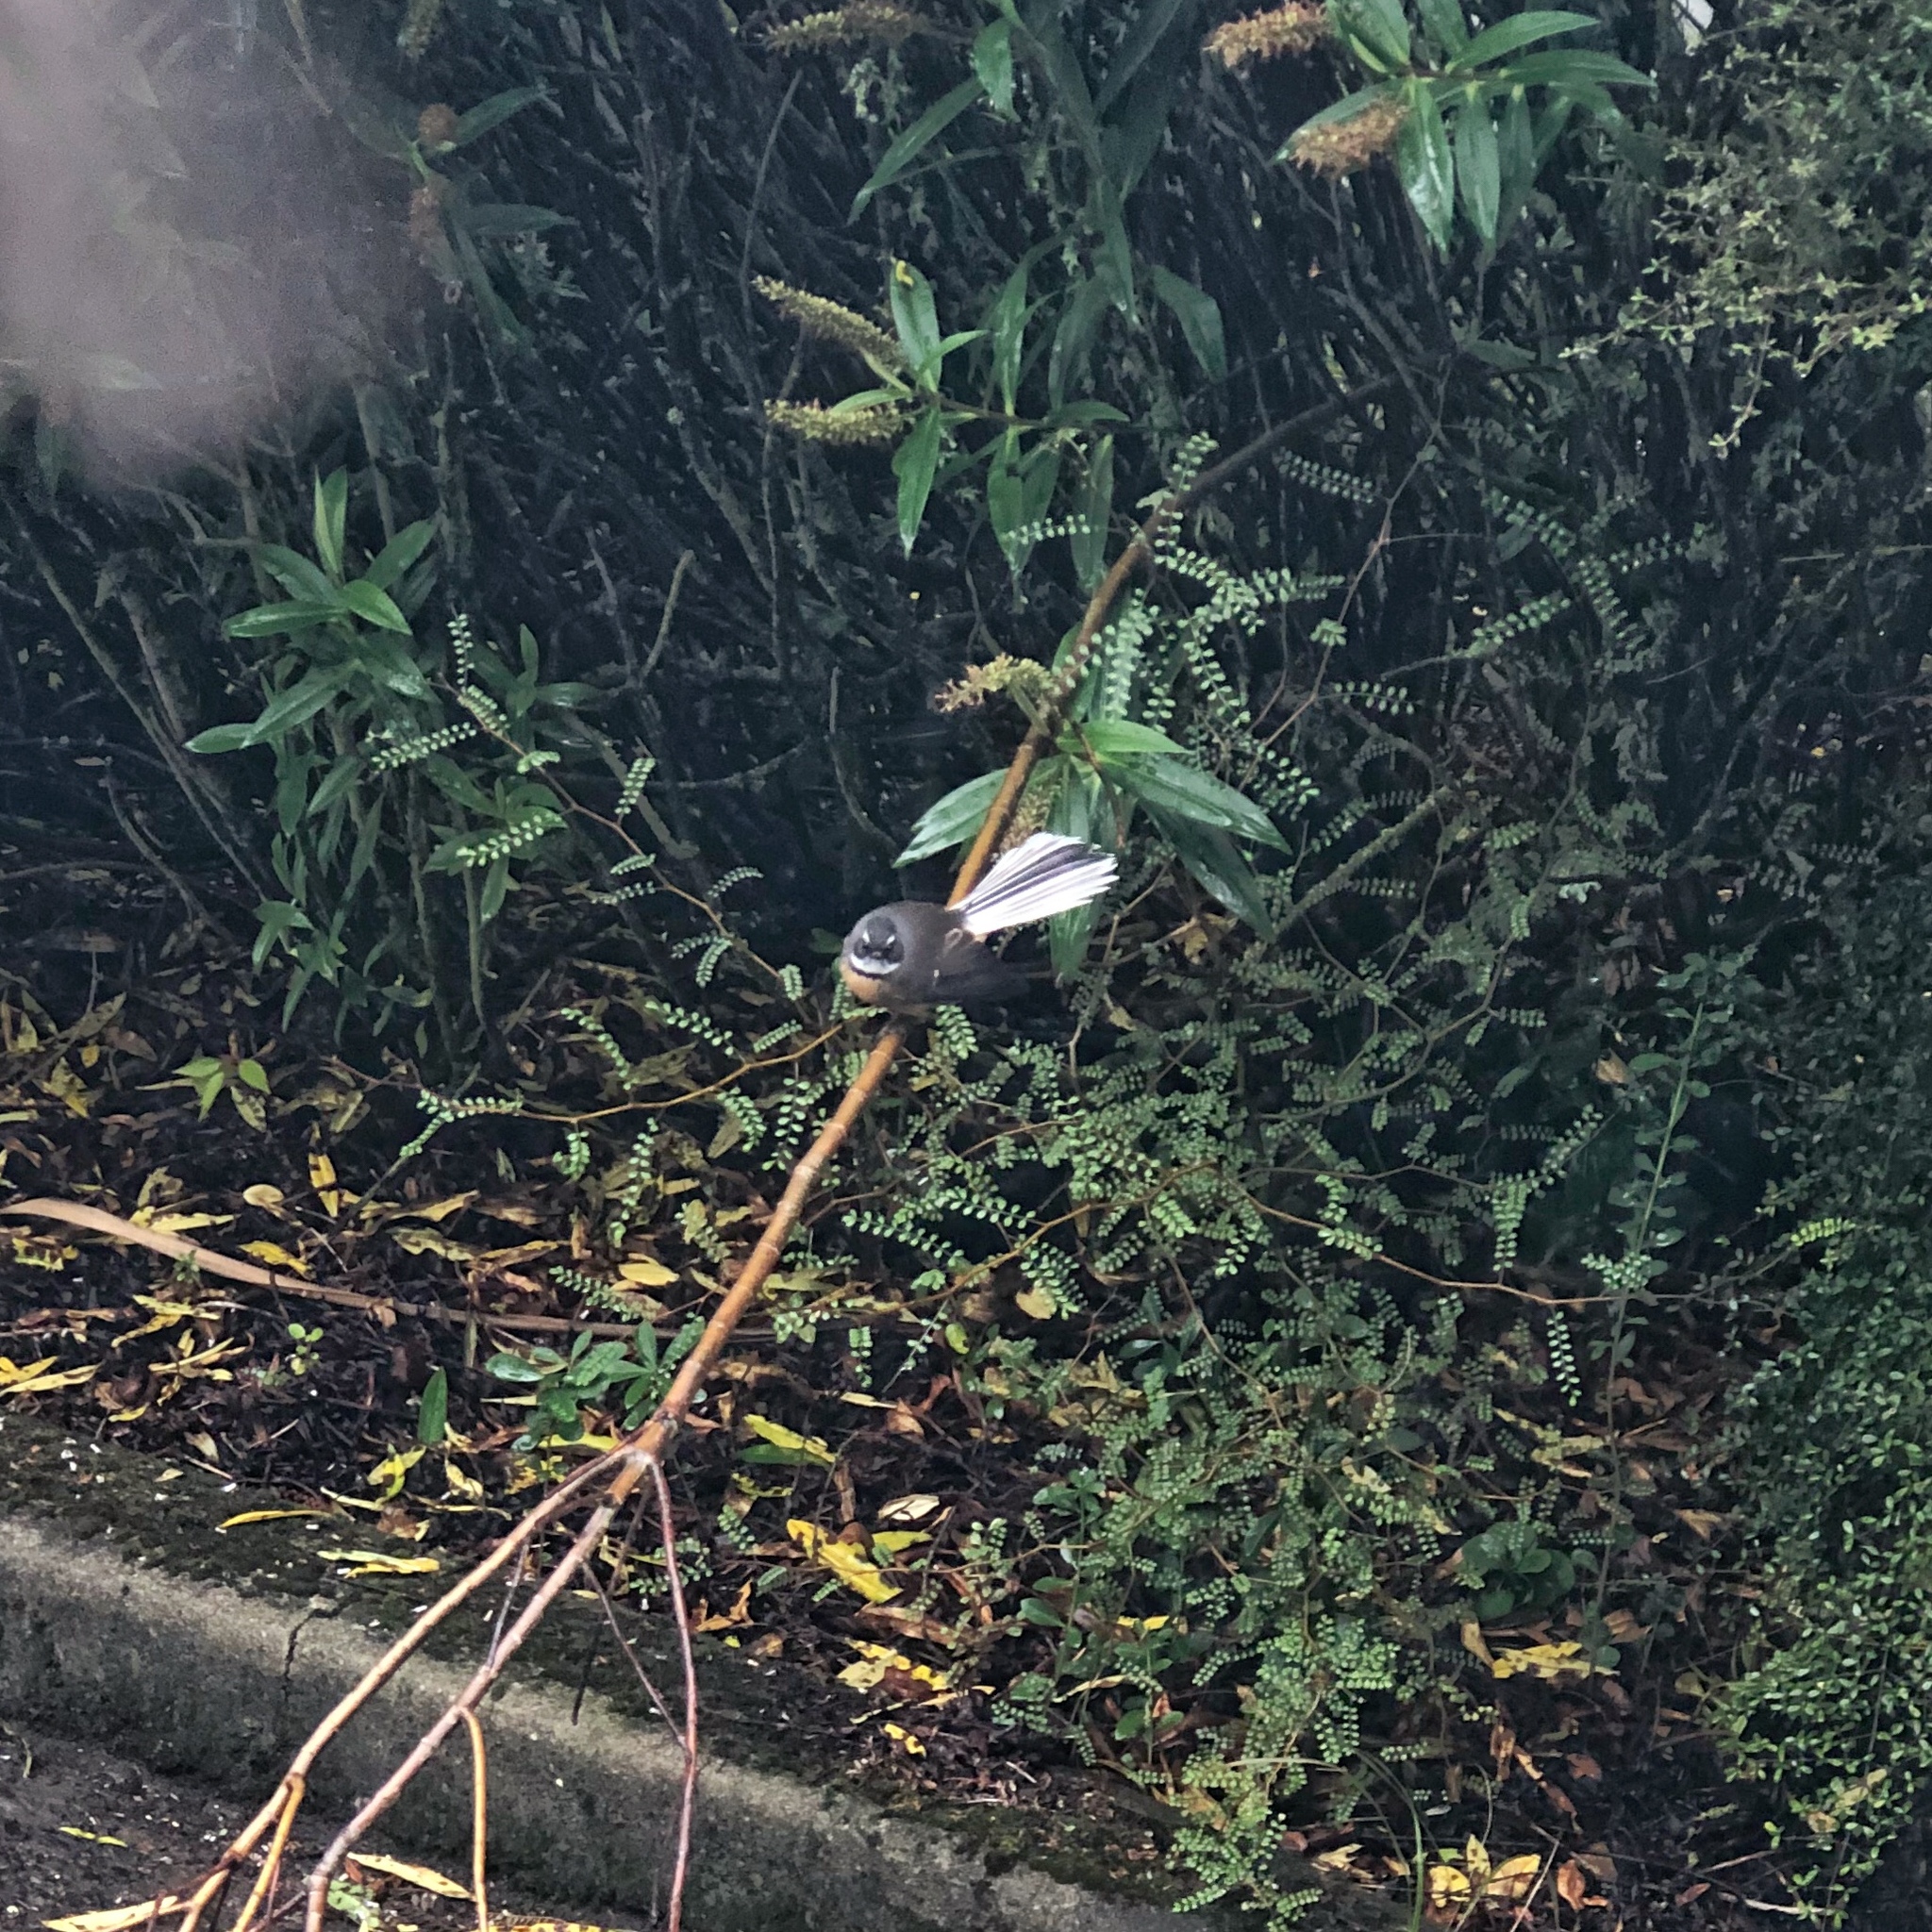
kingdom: Animalia
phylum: Chordata
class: Aves
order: Passeriformes
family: Rhipiduridae
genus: Rhipidura
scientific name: Rhipidura fuliginosa
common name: New zealand fantail
